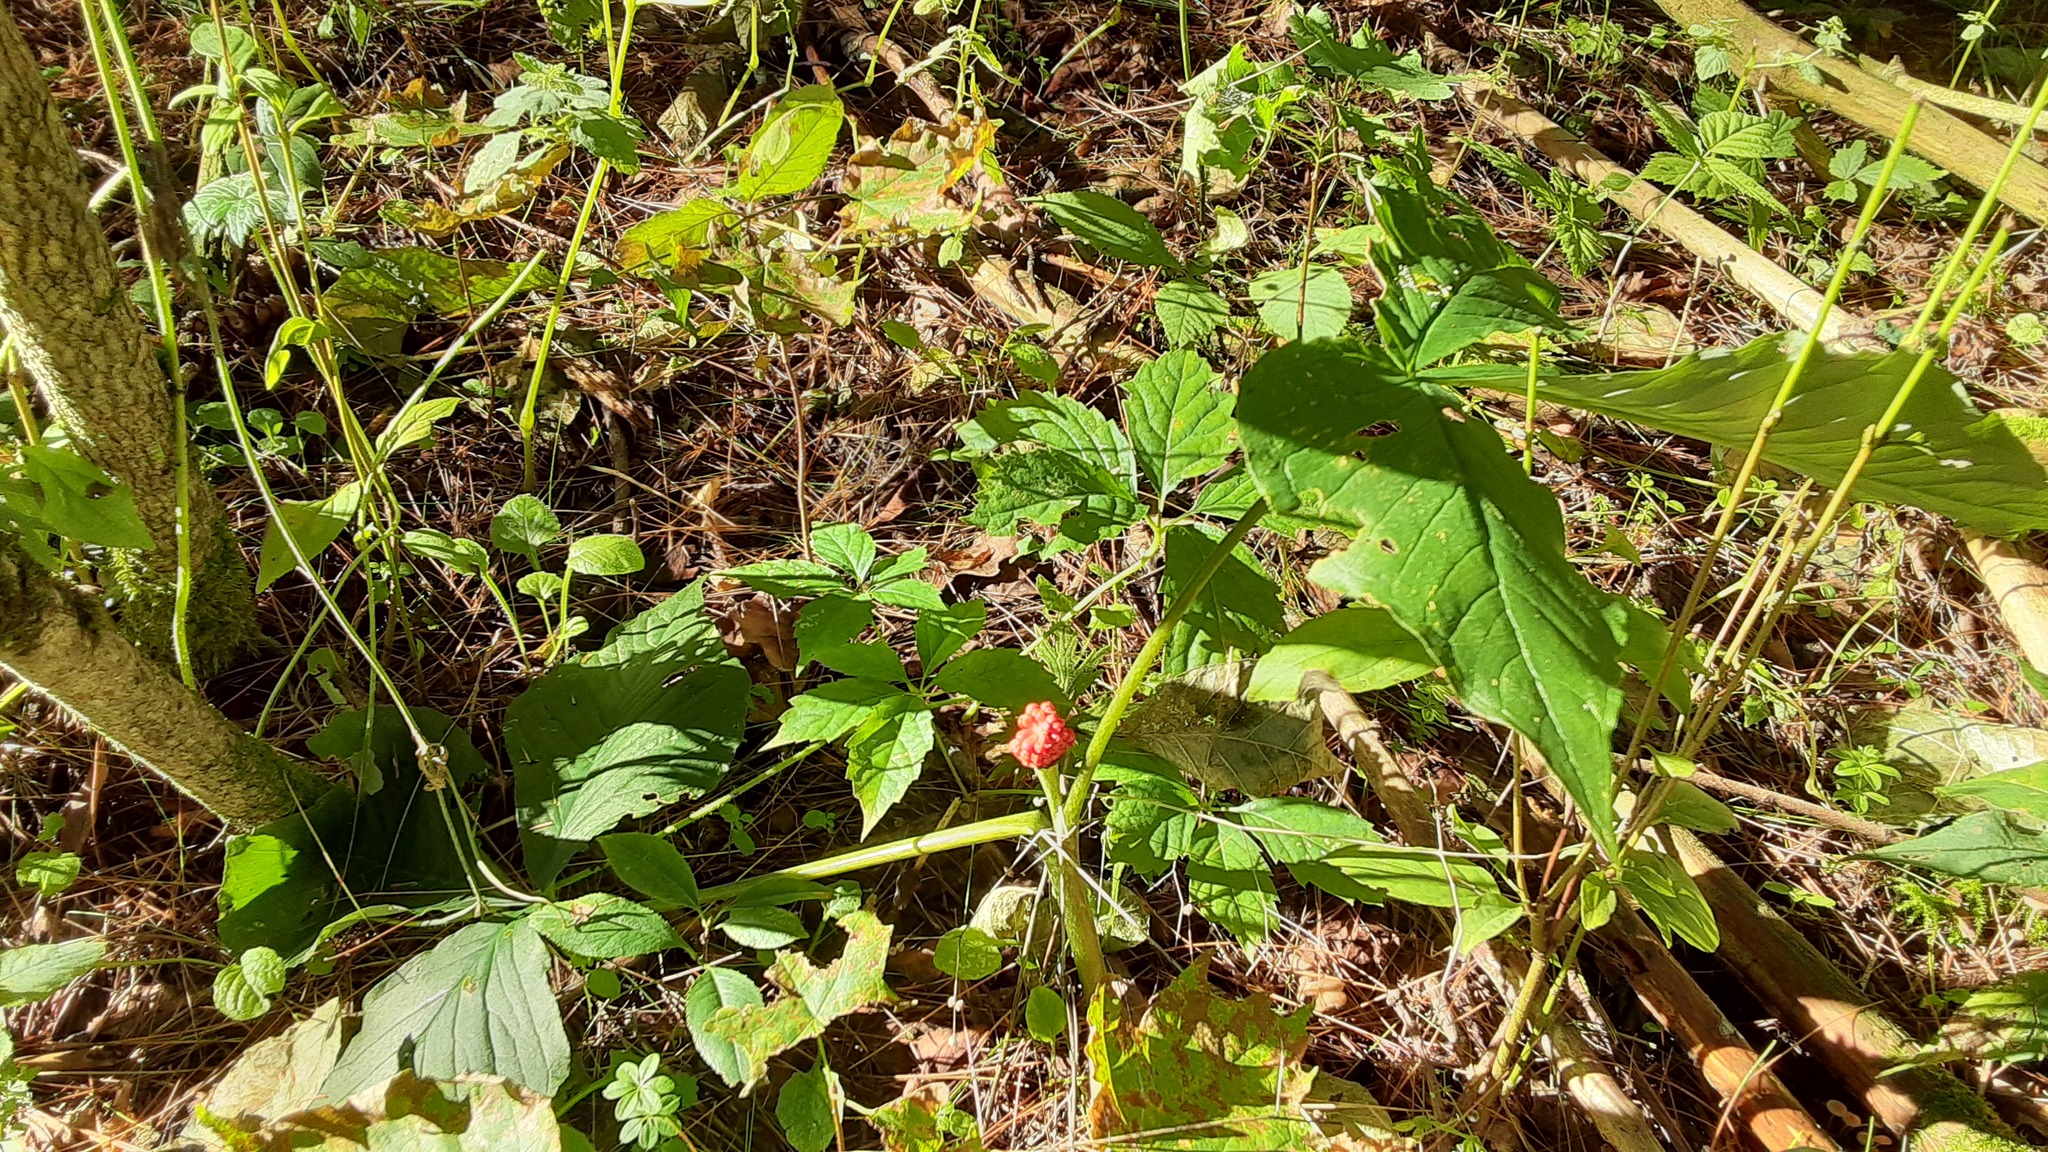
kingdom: Plantae
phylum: Tracheophyta
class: Liliopsida
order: Alismatales
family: Araceae
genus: Arisaema
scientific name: Arisaema triphyllum
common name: Jack-in-the-pulpit
